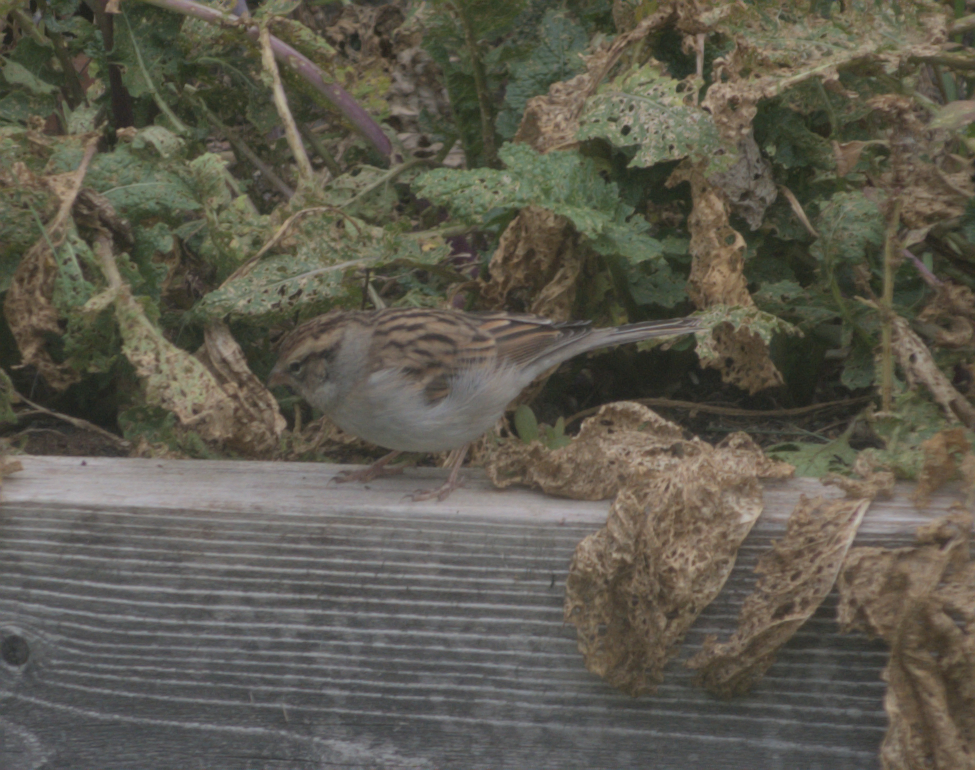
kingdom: Animalia
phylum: Chordata
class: Aves
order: Passeriformes
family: Passerellidae
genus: Spizella
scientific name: Spizella passerina
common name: Chipping sparrow
